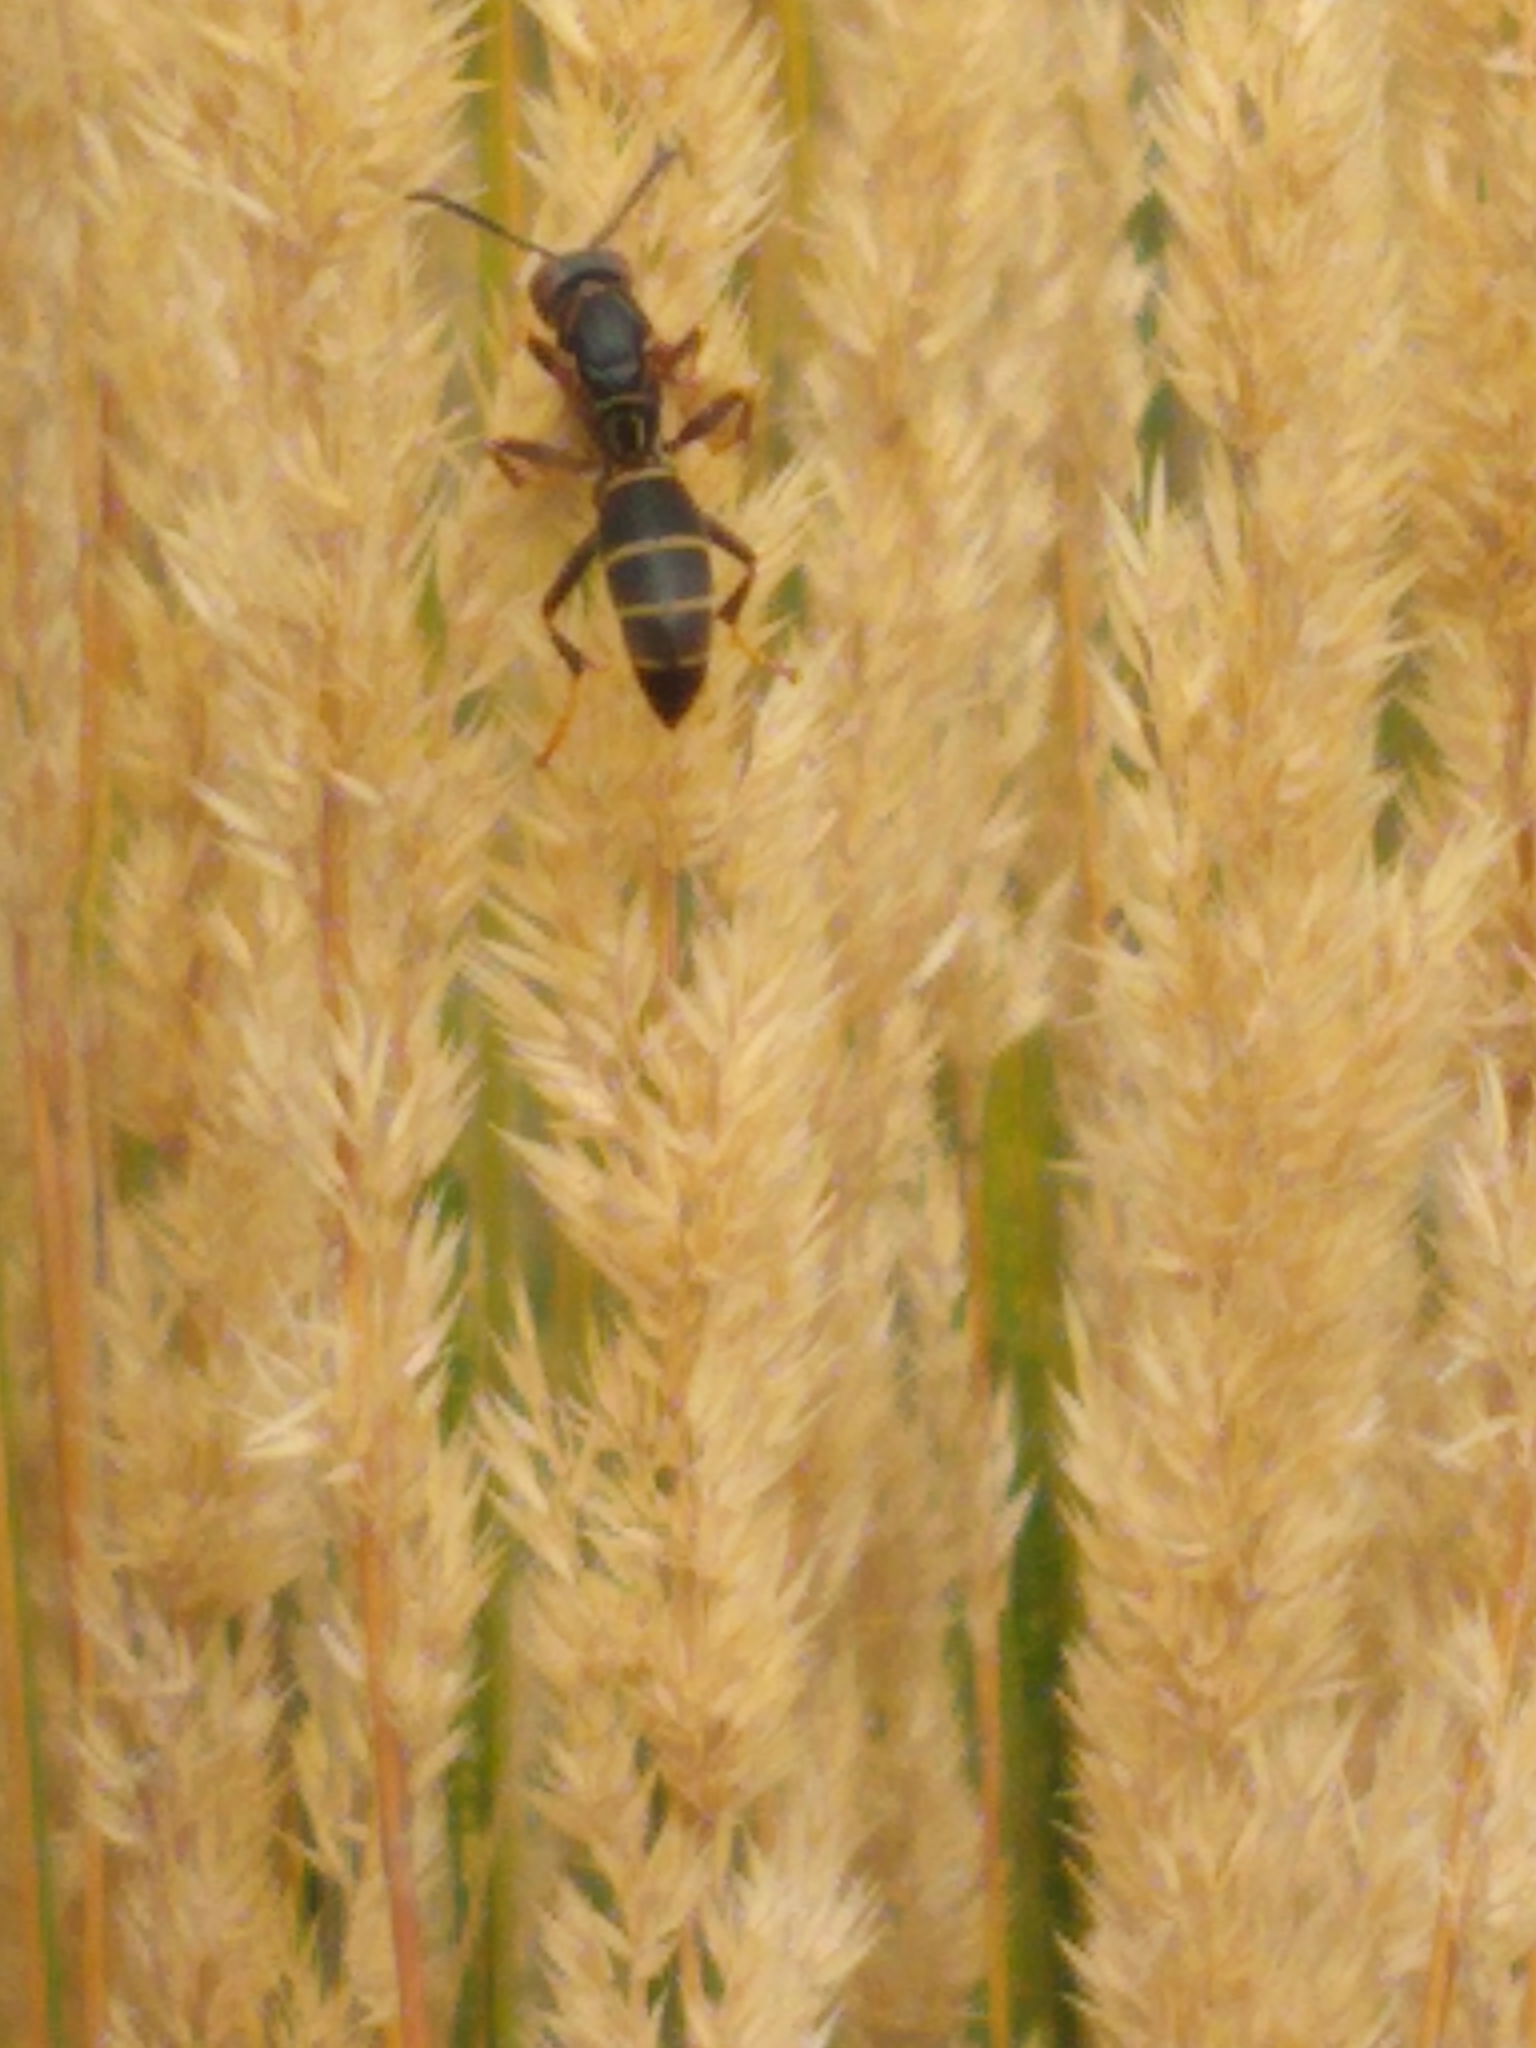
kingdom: Animalia
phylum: Arthropoda
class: Insecta
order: Hymenoptera
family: Eumenidae
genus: Polistes
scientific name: Polistes fuscatus
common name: Dark paper wasp
